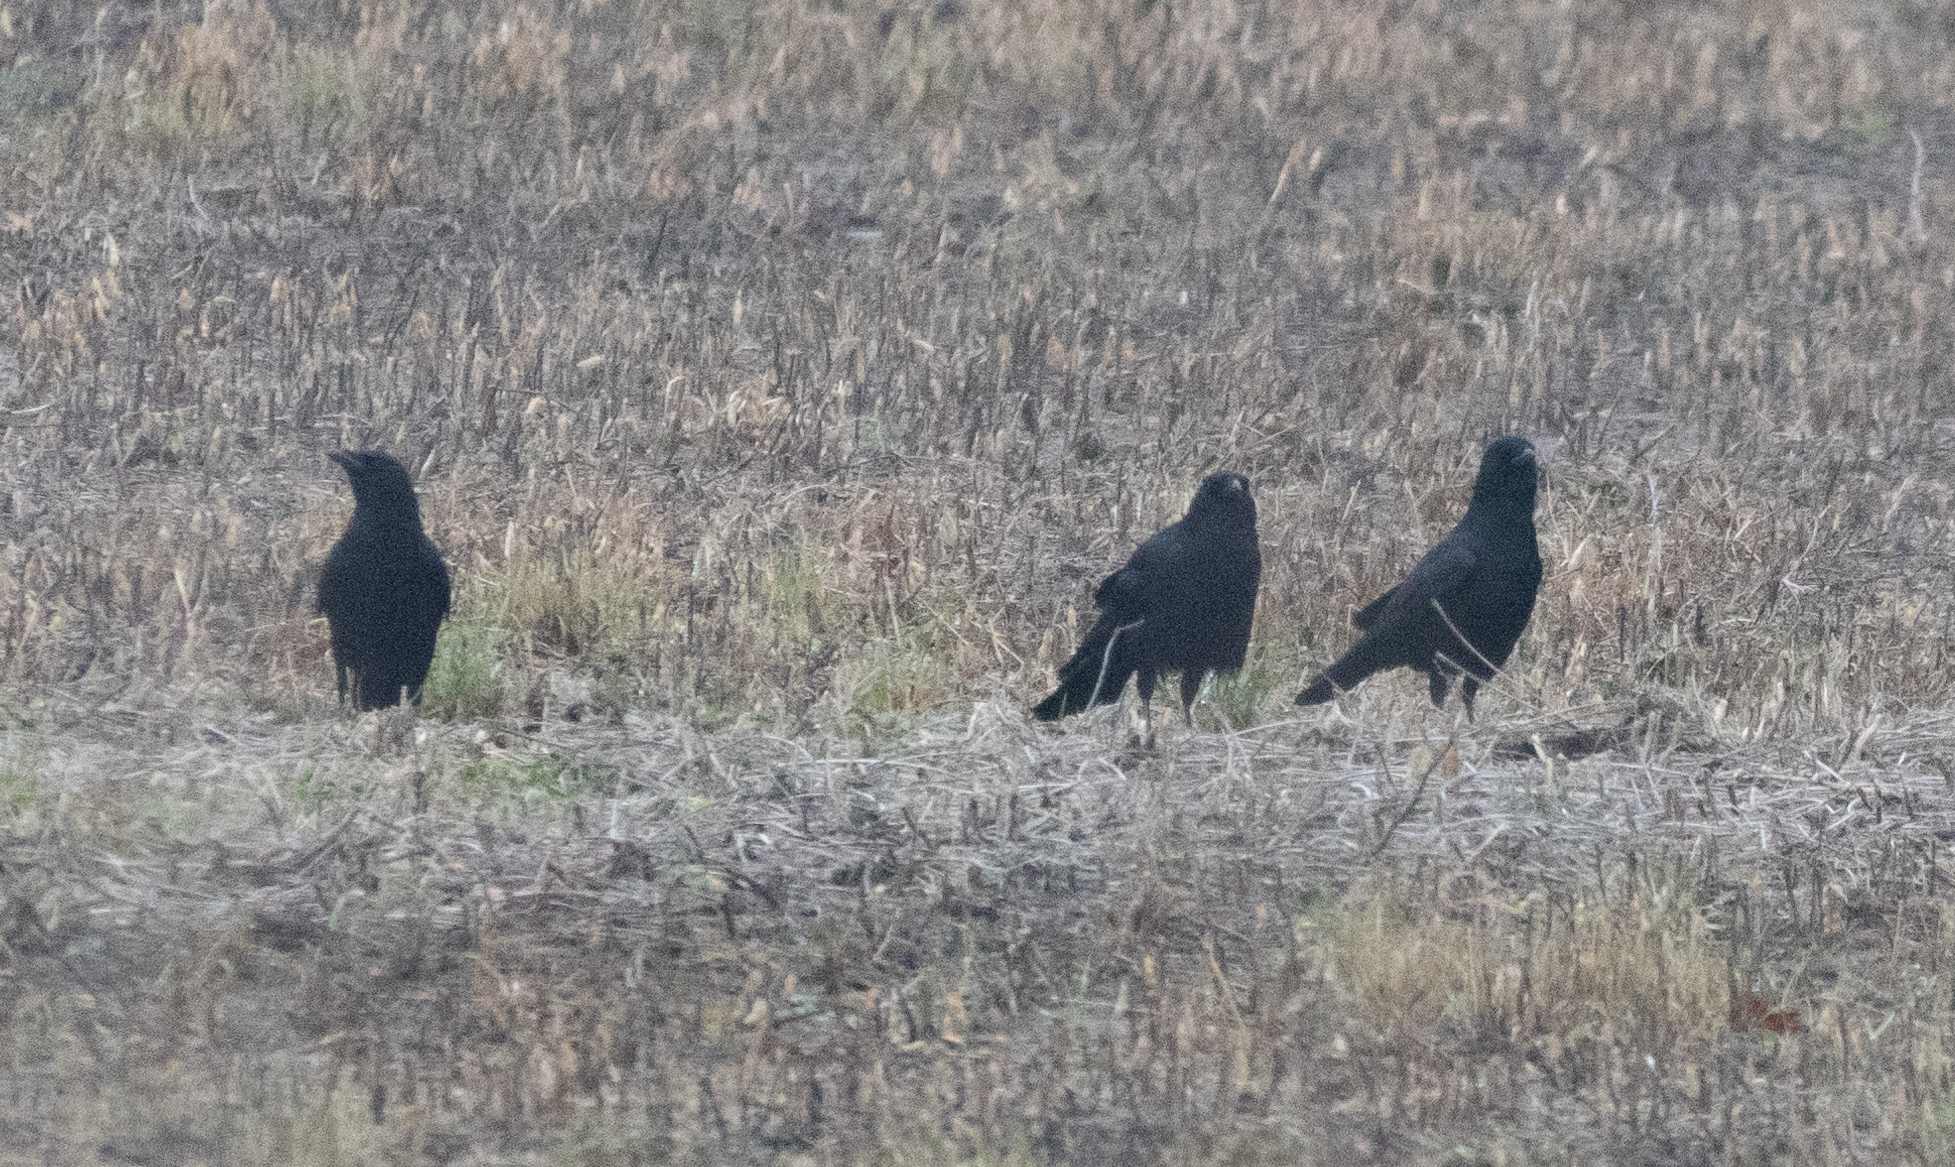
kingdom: Animalia
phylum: Chordata
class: Aves
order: Passeriformes
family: Corvidae
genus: Corvus
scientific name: Corvus brachyrhynchos
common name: American crow
